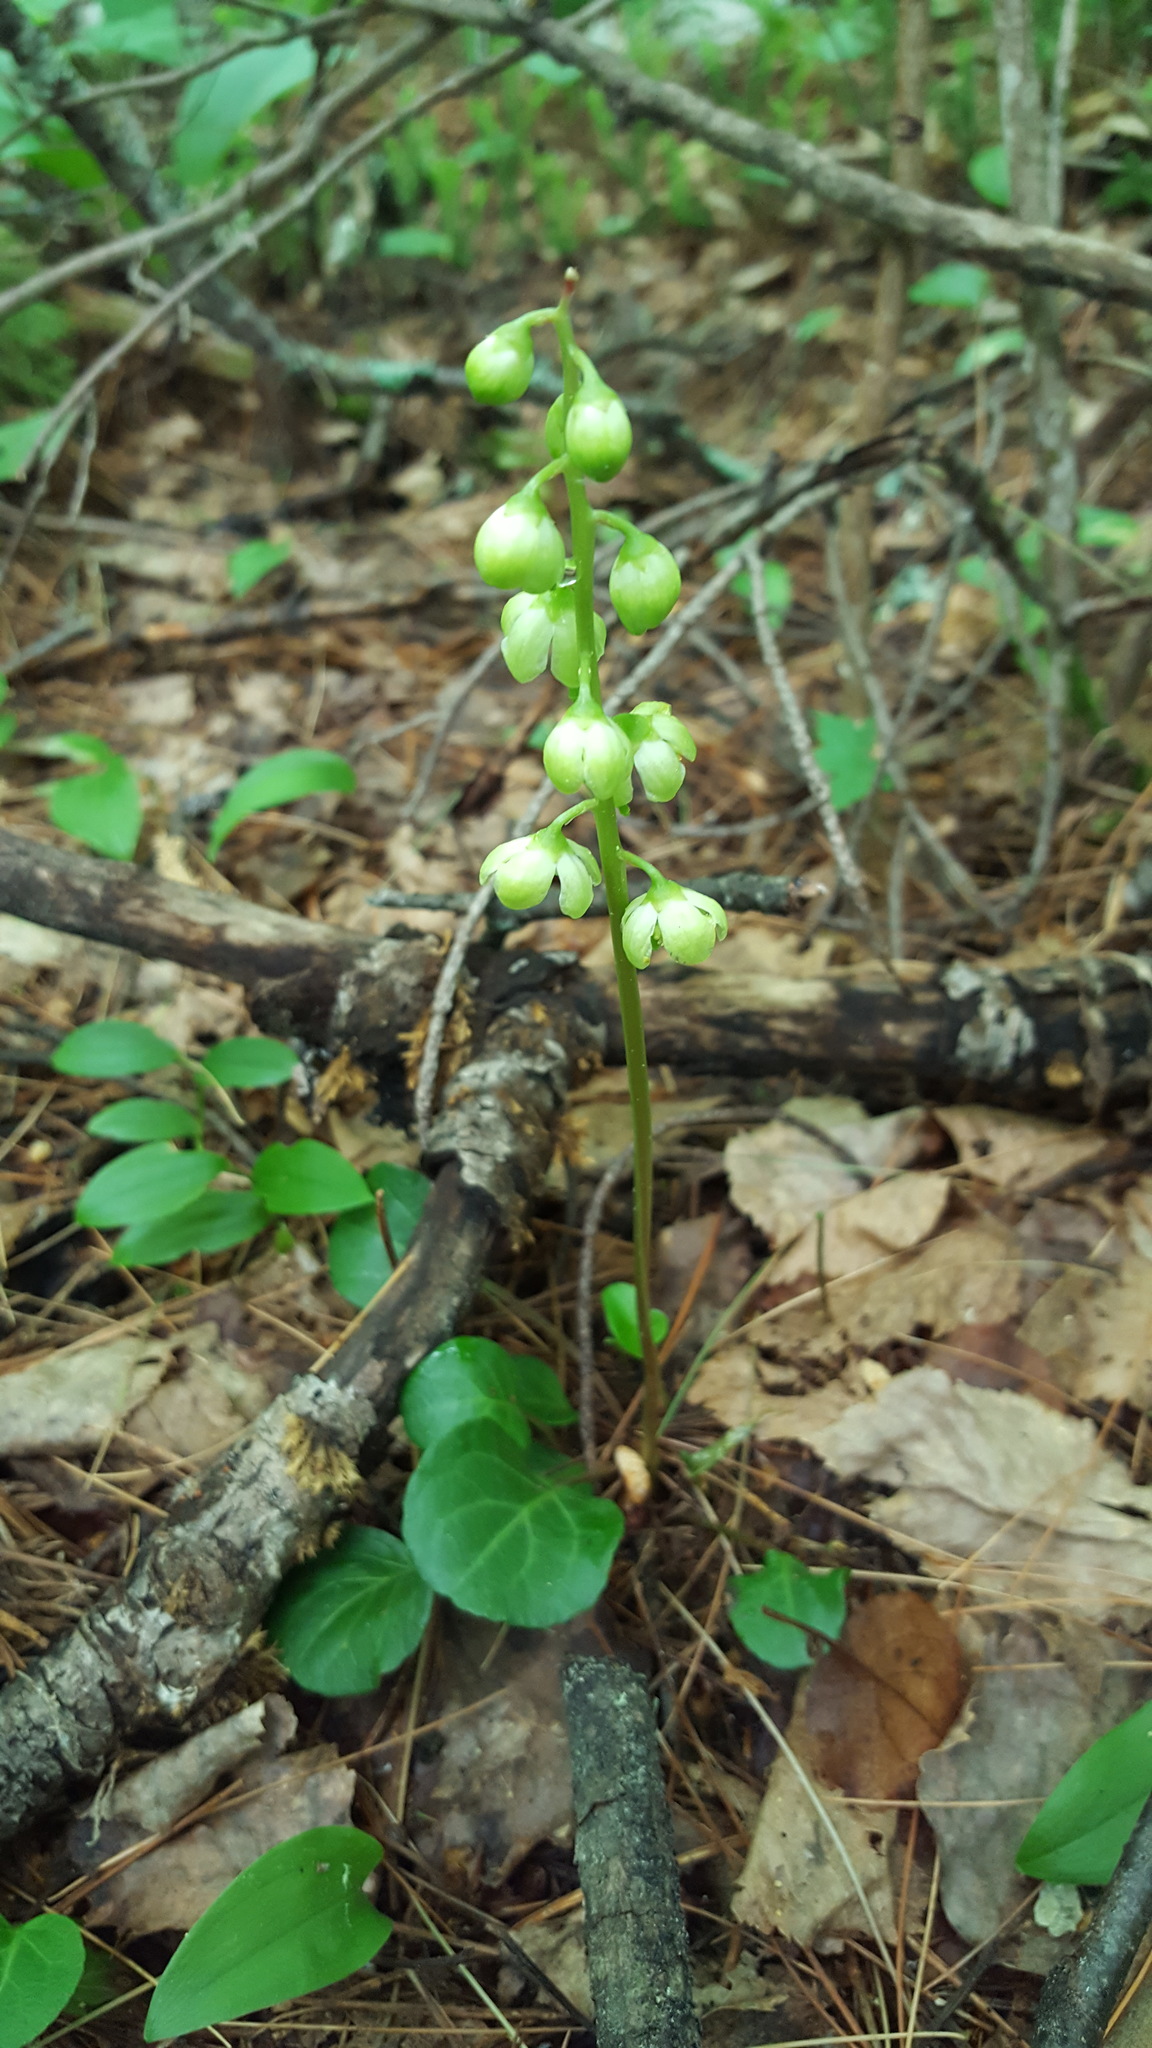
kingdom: Plantae
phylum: Tracheophyta
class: Magnoliopsida
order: Ericales
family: Ericaceae
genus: Pyrola
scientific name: Pyrola chlorantha
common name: Green wintergreen
